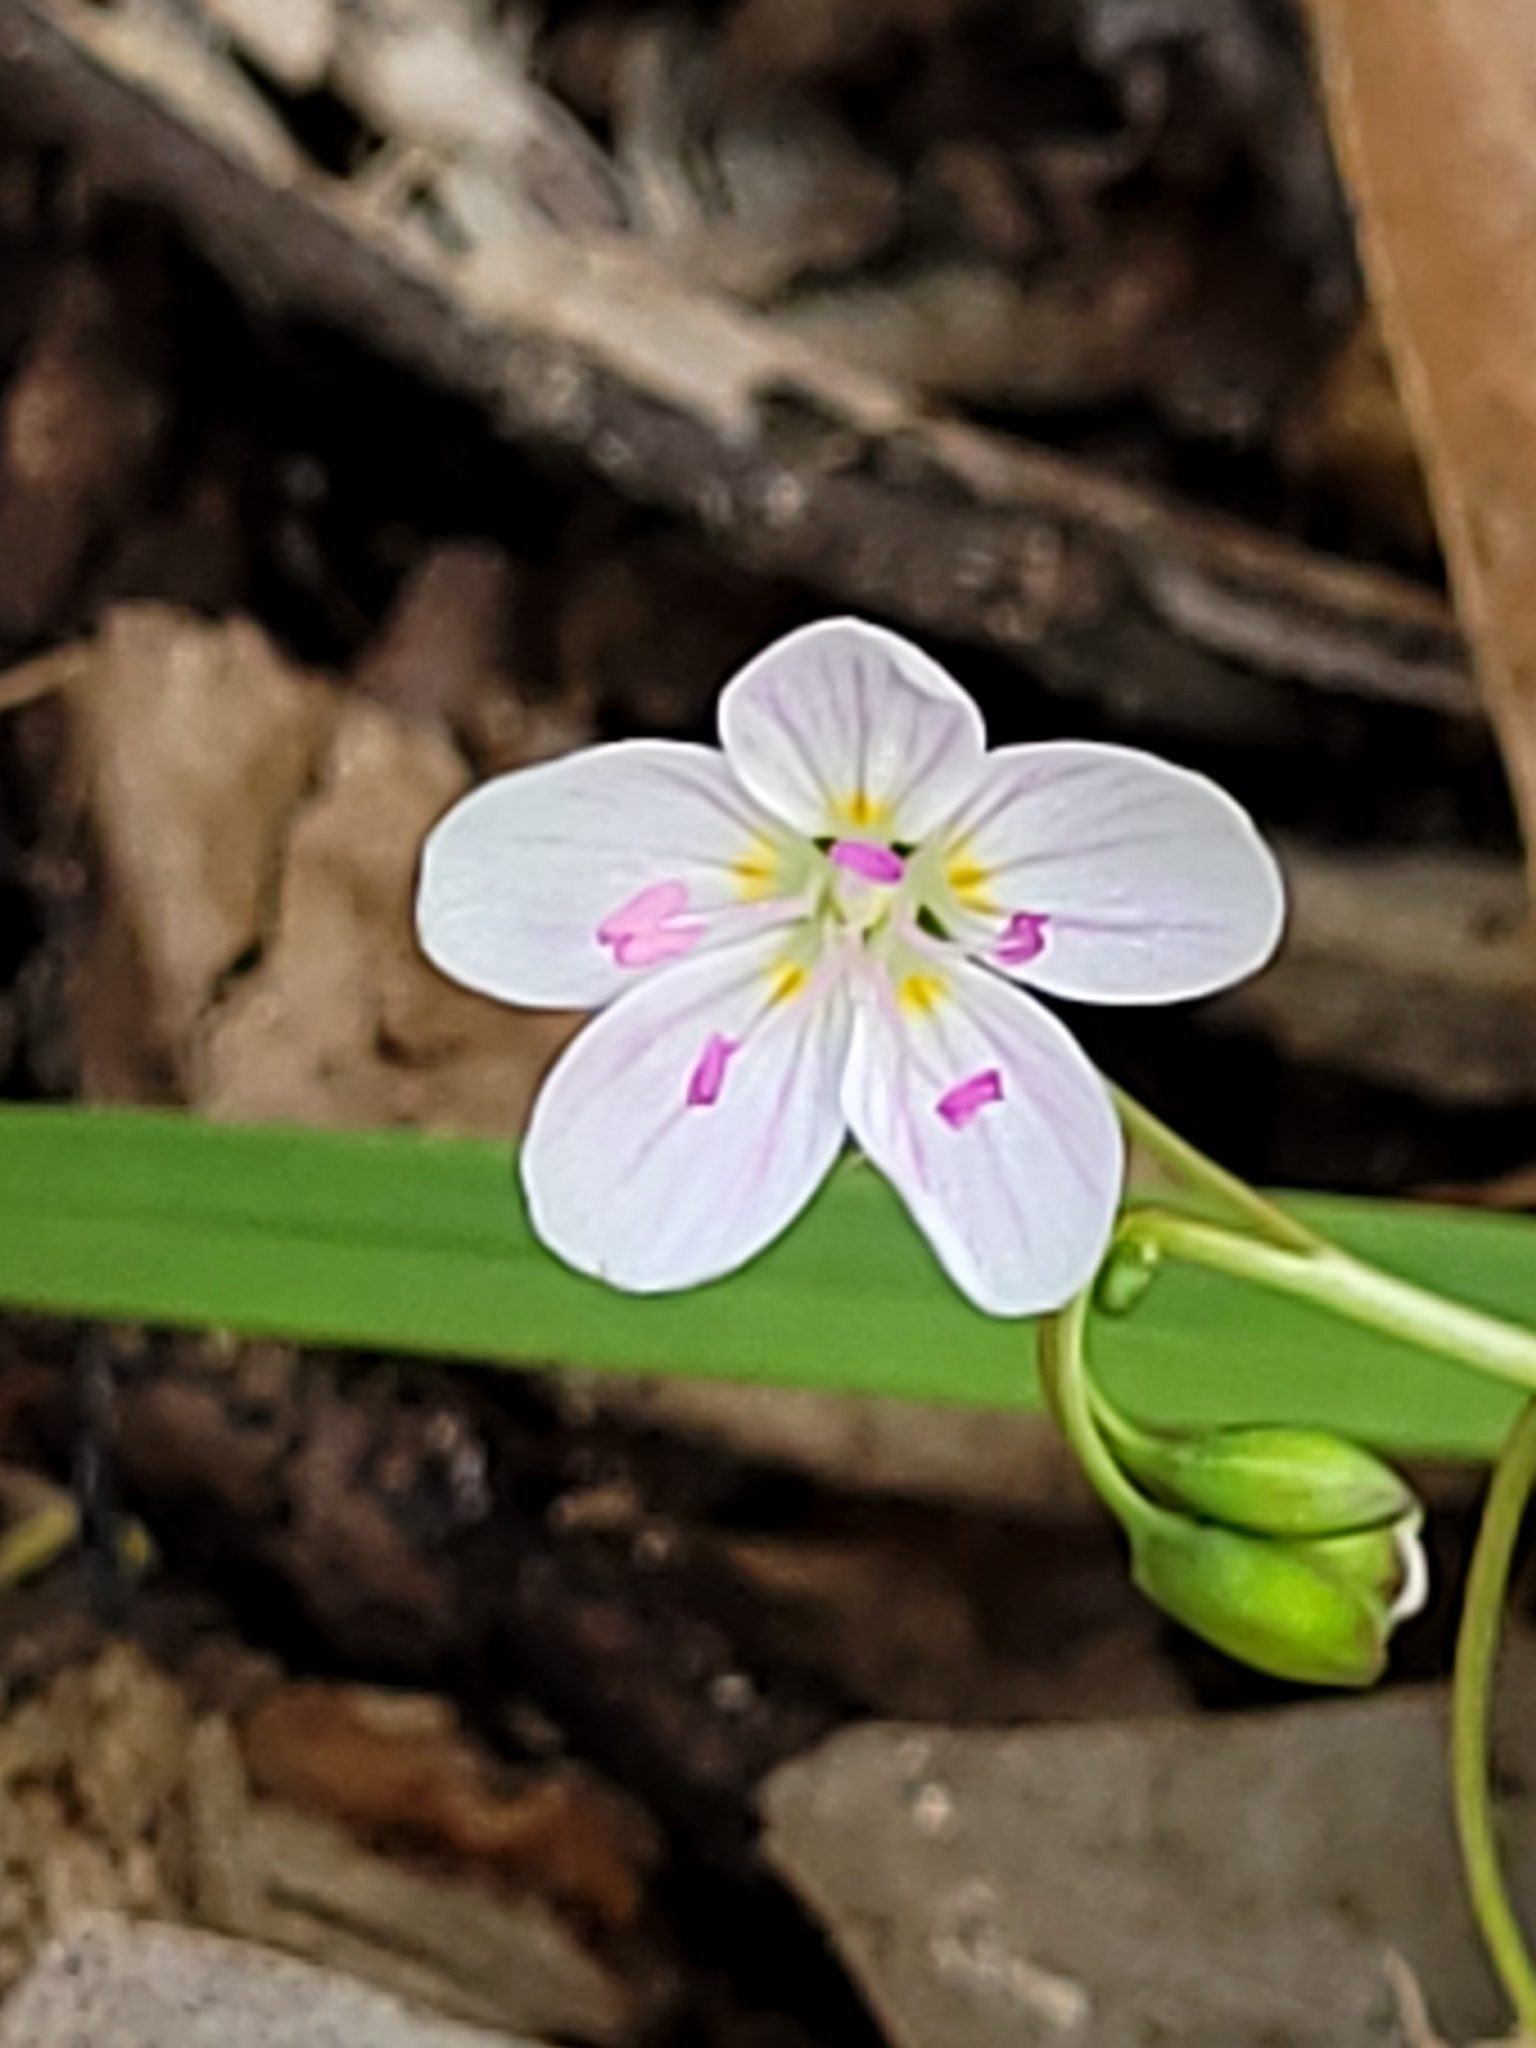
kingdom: Plantae
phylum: Tracheophyta
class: Magnoliopsida
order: Caryophyllales
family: Montiaceae
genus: Claytonia
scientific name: Claytonia virginica
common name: Virginia springbeauty
